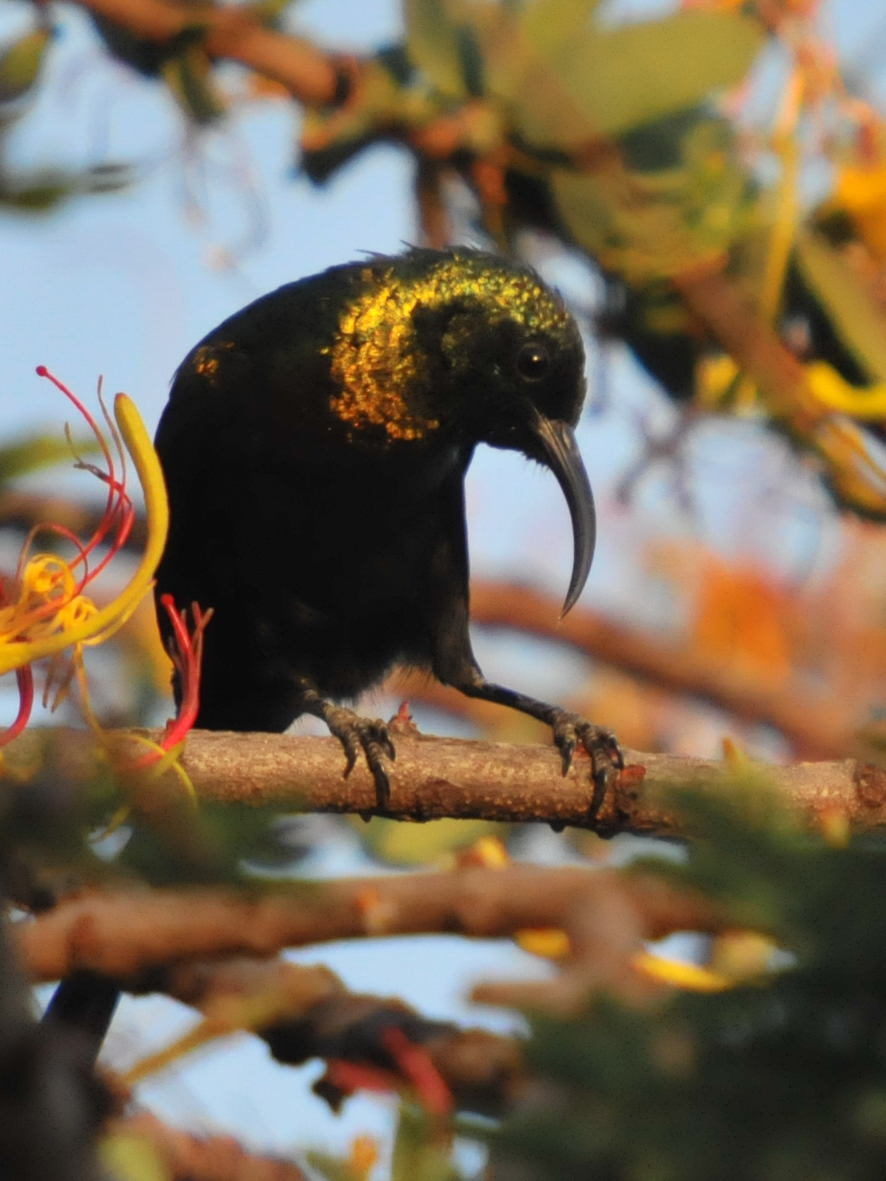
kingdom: Animalia
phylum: Chordata
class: Aves
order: Passeriformes
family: Nectariniidae
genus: Nectarinia
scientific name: Nectarinia kilimensis
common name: Bronzy sunbird
